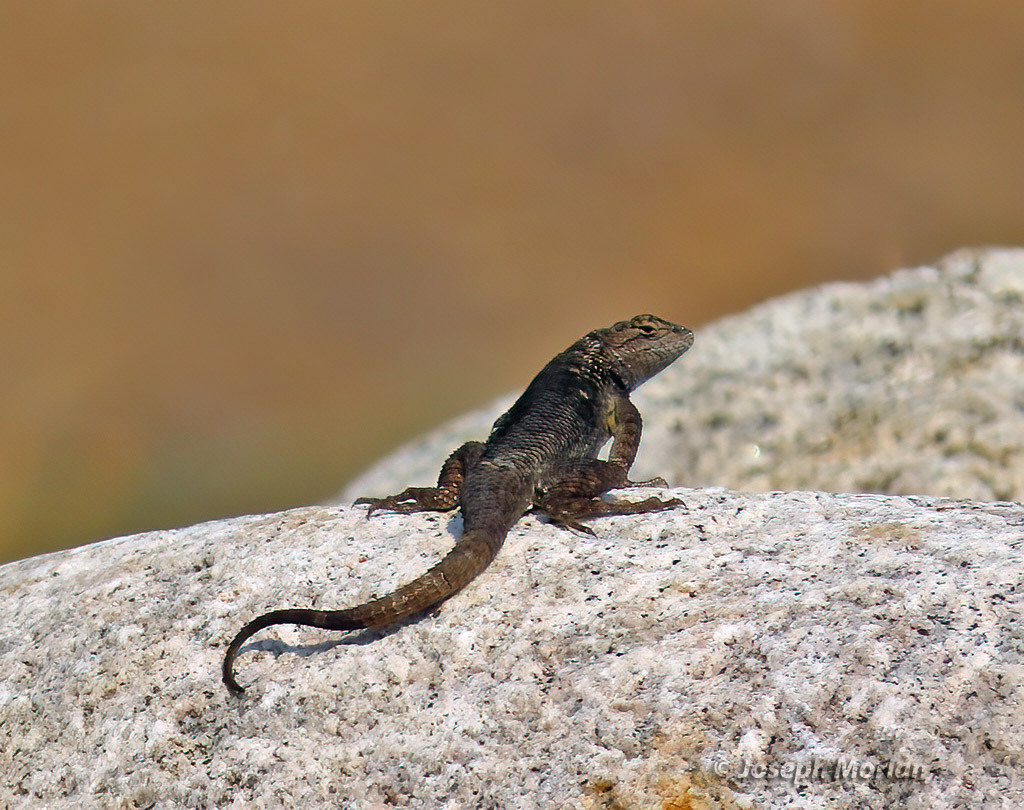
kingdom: Animalia
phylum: Chordata
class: Squamata
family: Phrynosomatidae
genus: Sceloporus
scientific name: Sceloporus occidentalis
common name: Western fence lizard
